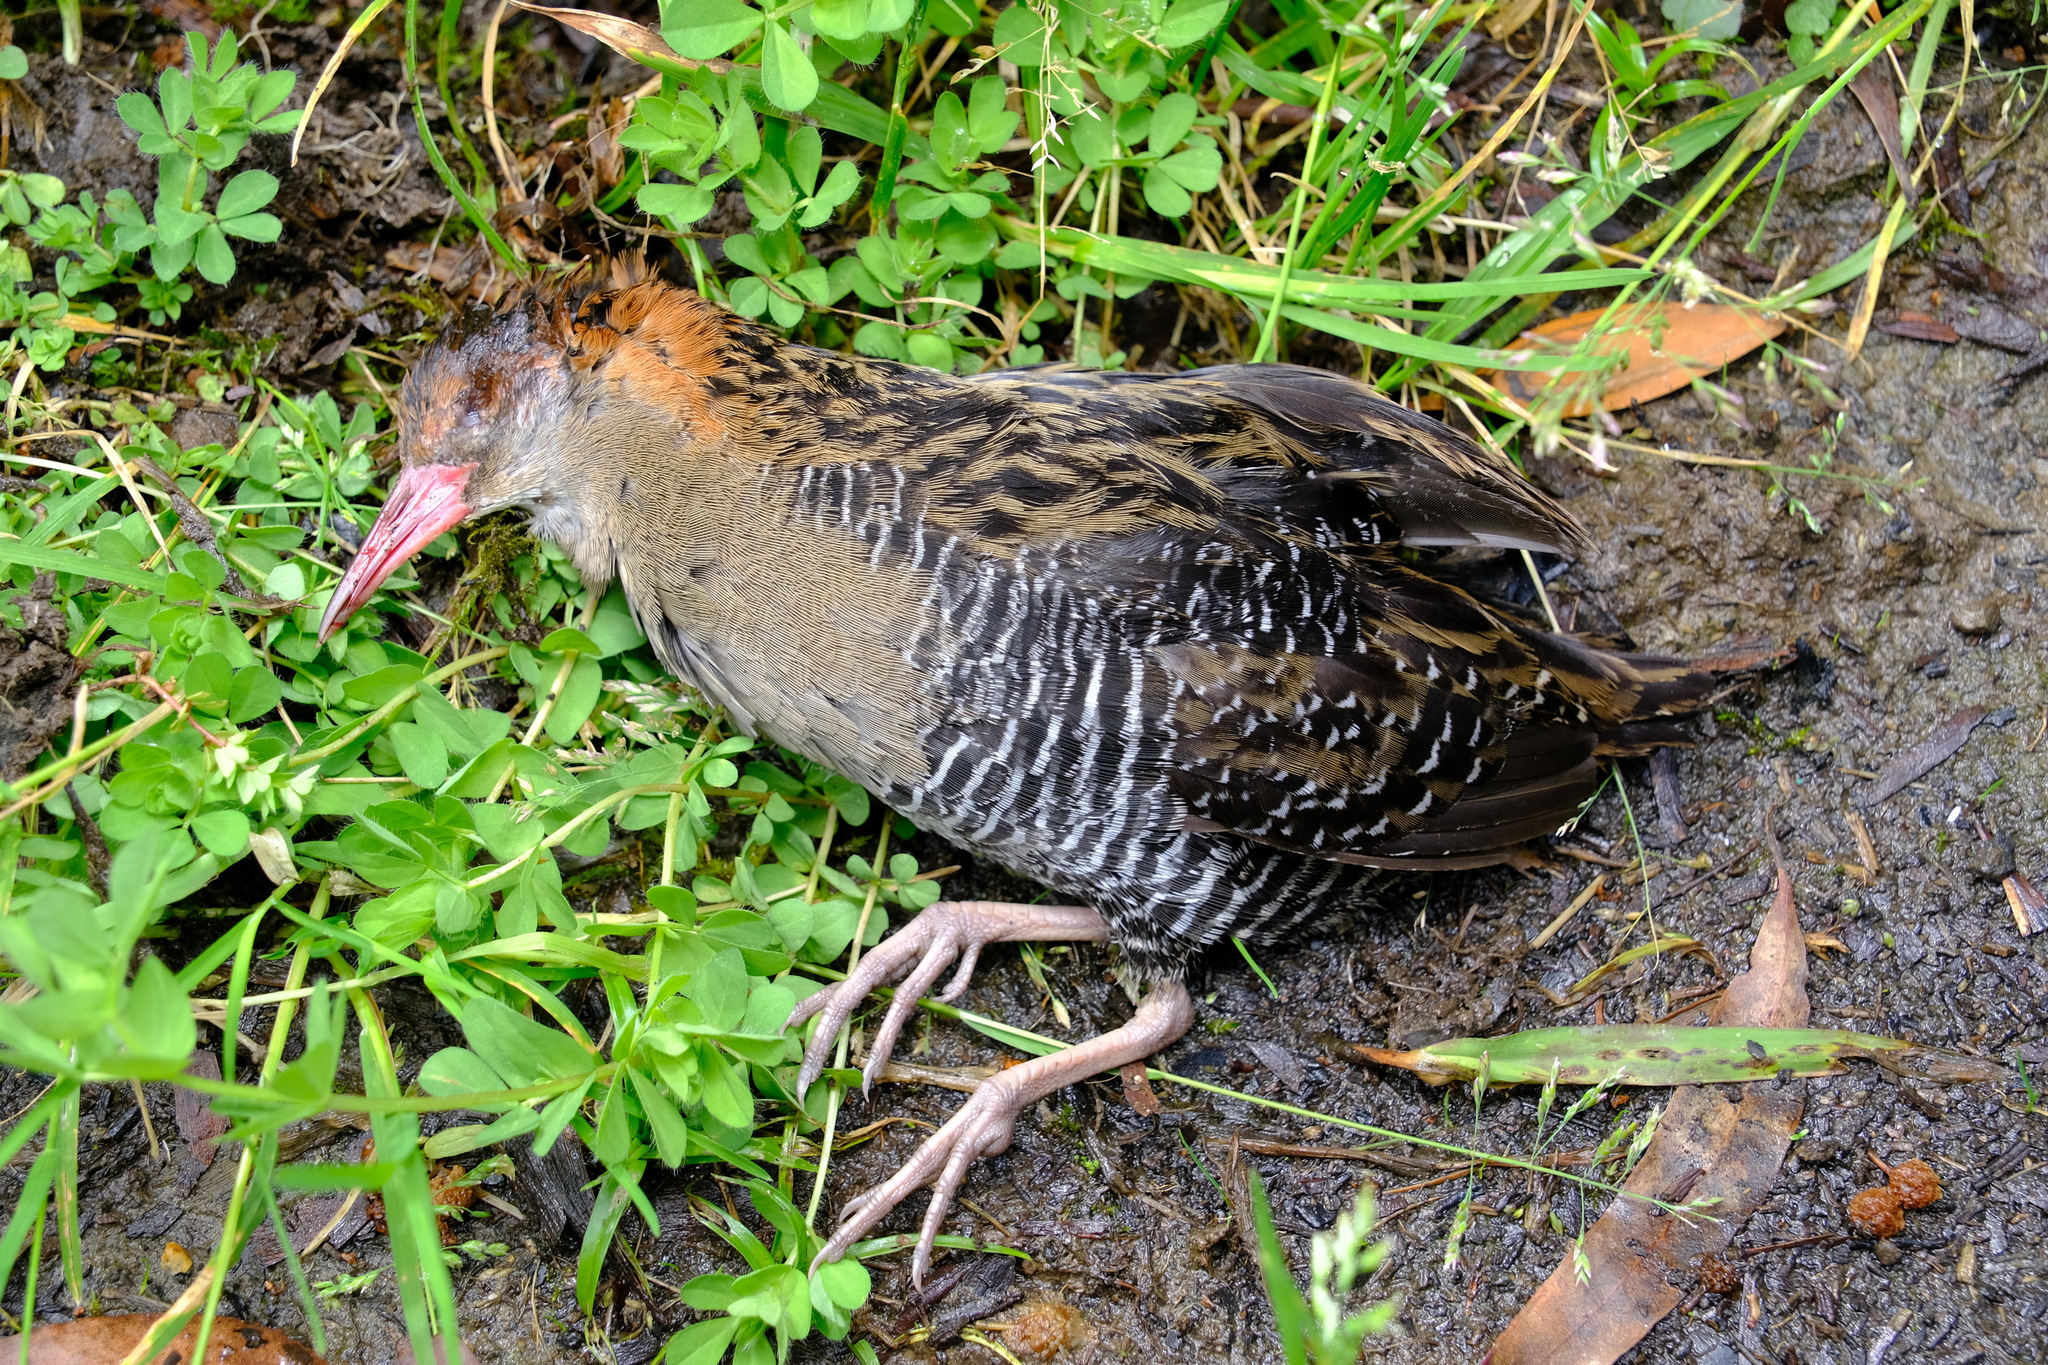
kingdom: Animalia
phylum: Chordata
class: Aves
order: Gruiformes
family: Rallidae
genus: Lewinia
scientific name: Lewinia pectoralis
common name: Lewin's rail
